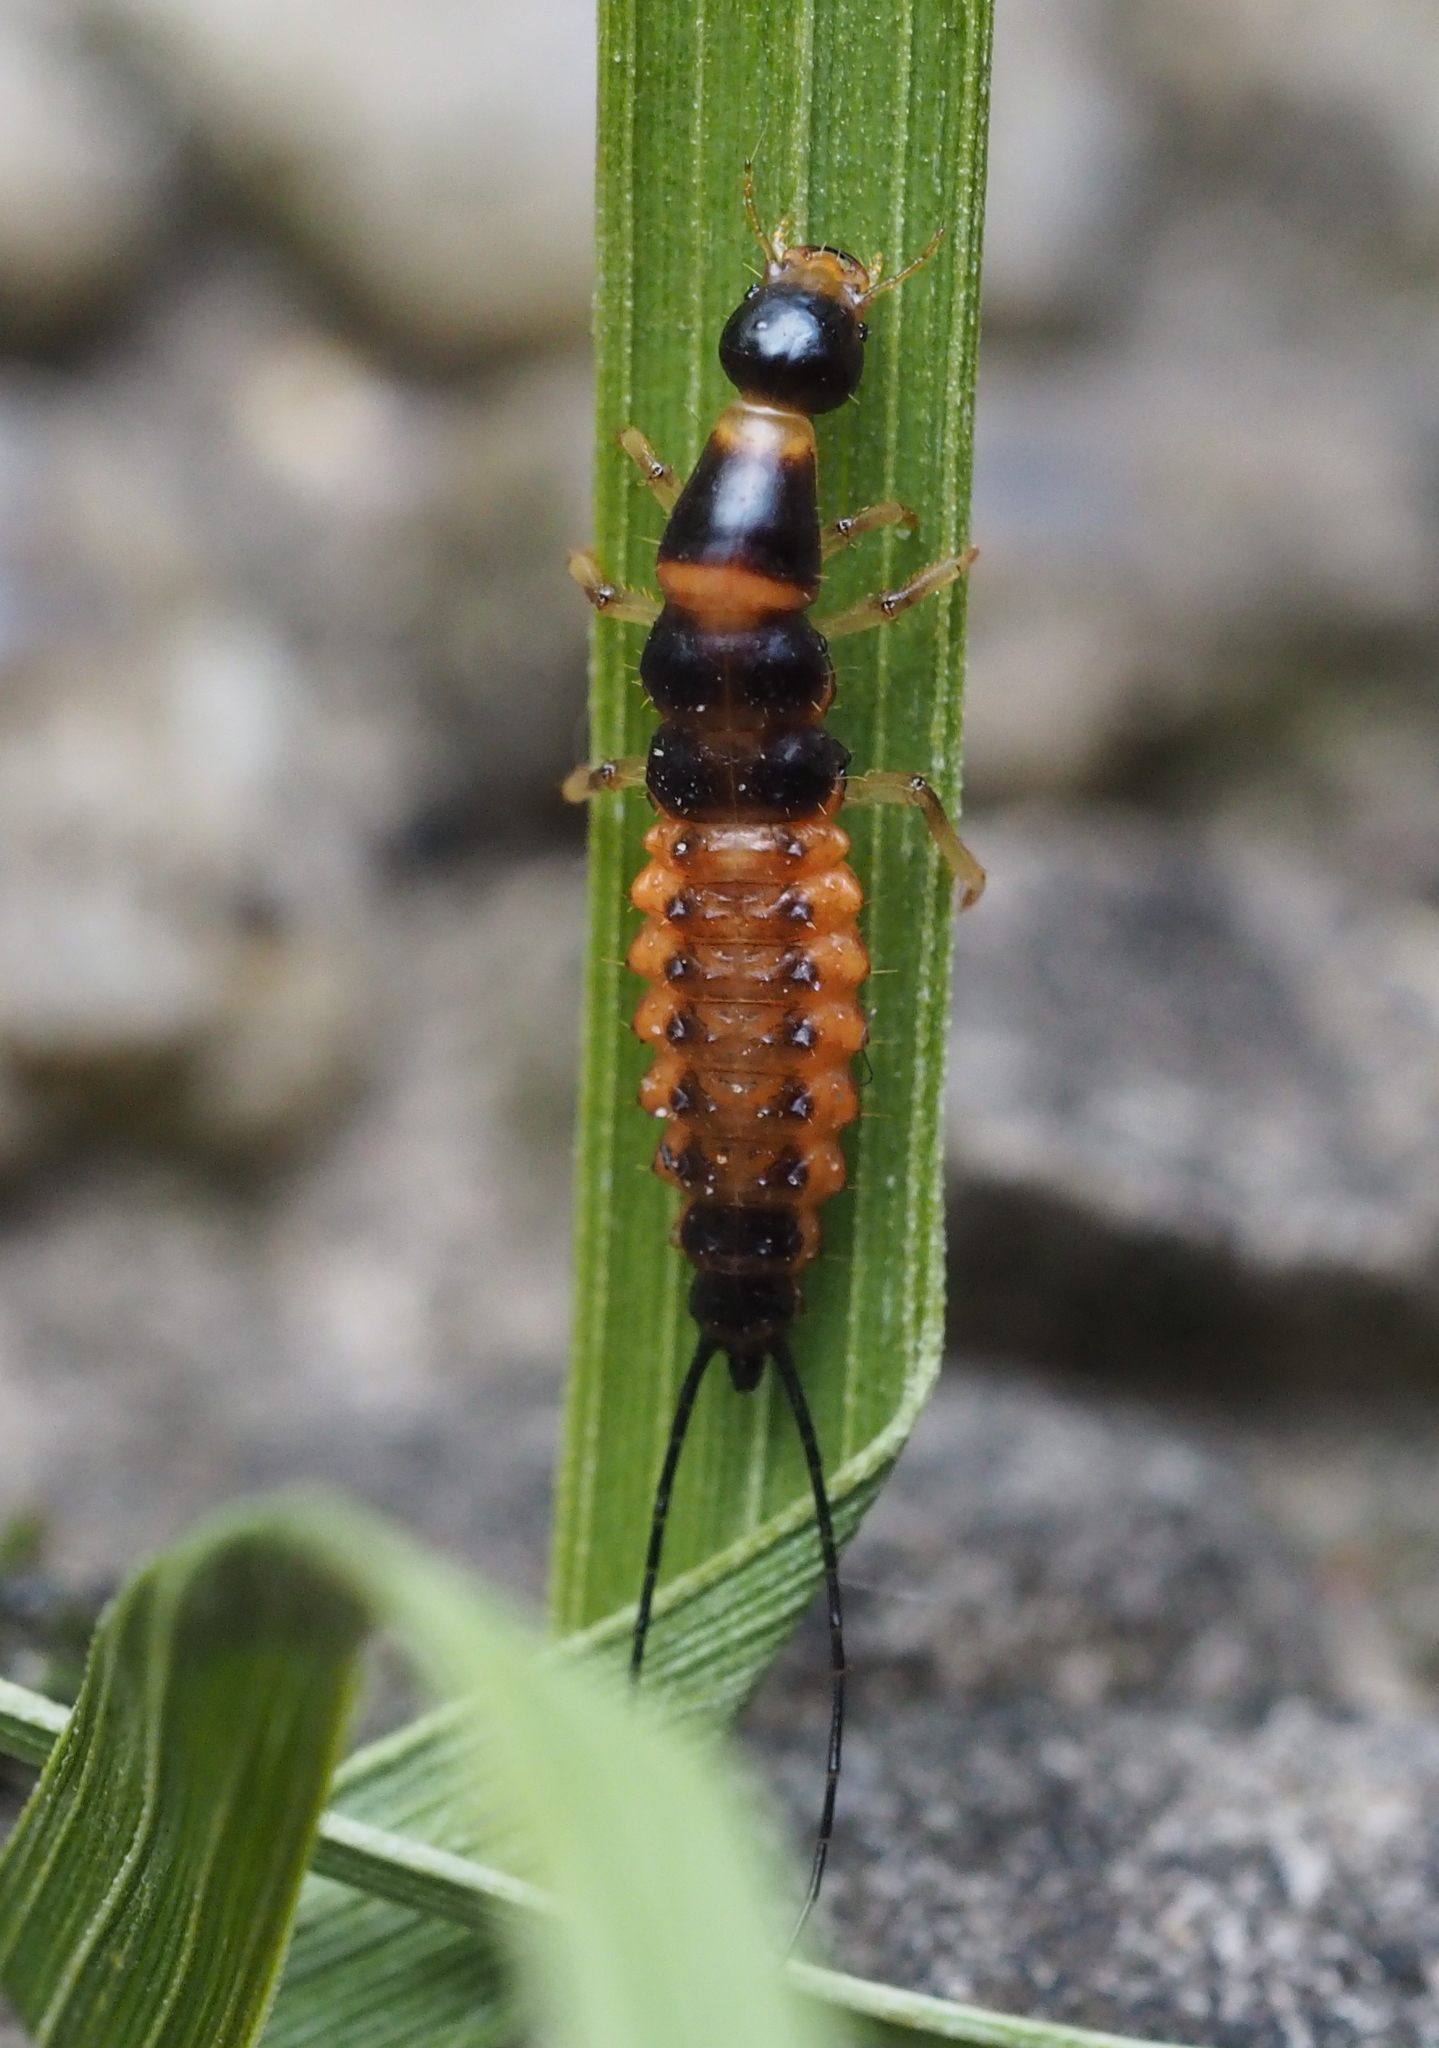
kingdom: Animalia
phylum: Arthropoda
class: Insecta
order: Coleoptera
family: Carabidae
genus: Drypta
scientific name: Drypta dentata
